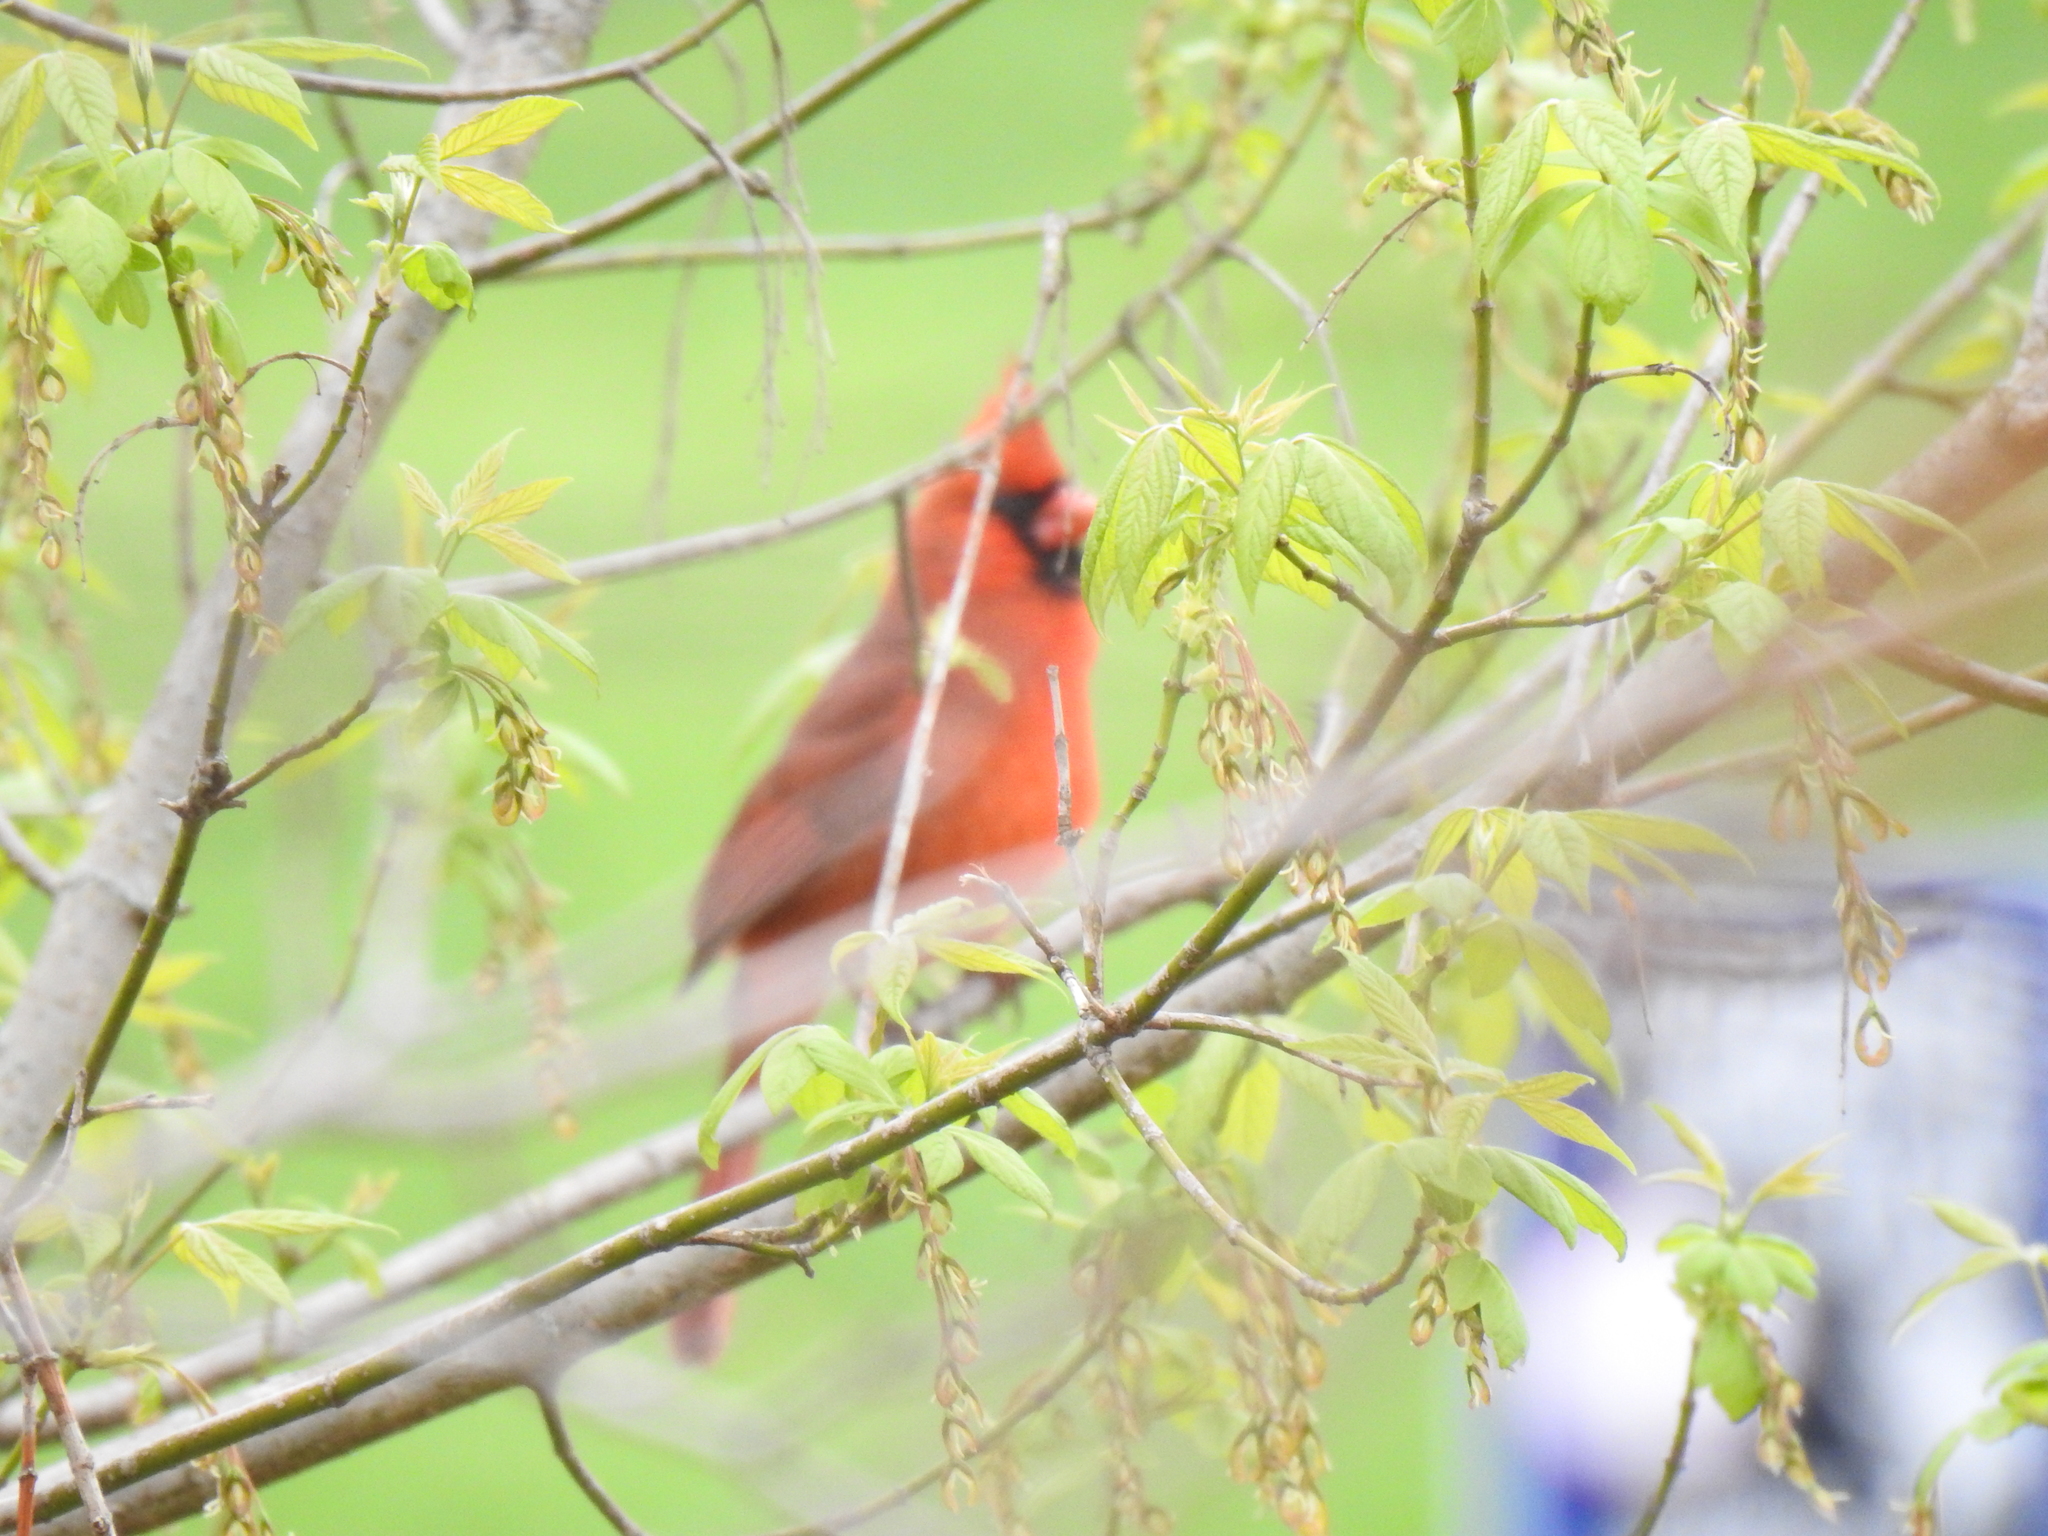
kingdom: Animalia
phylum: Chordata
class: Aves
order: Passeriformes
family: Cardinalidae
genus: Cardinalis
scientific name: Cardinalis cardinalis
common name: Northern cardinal
